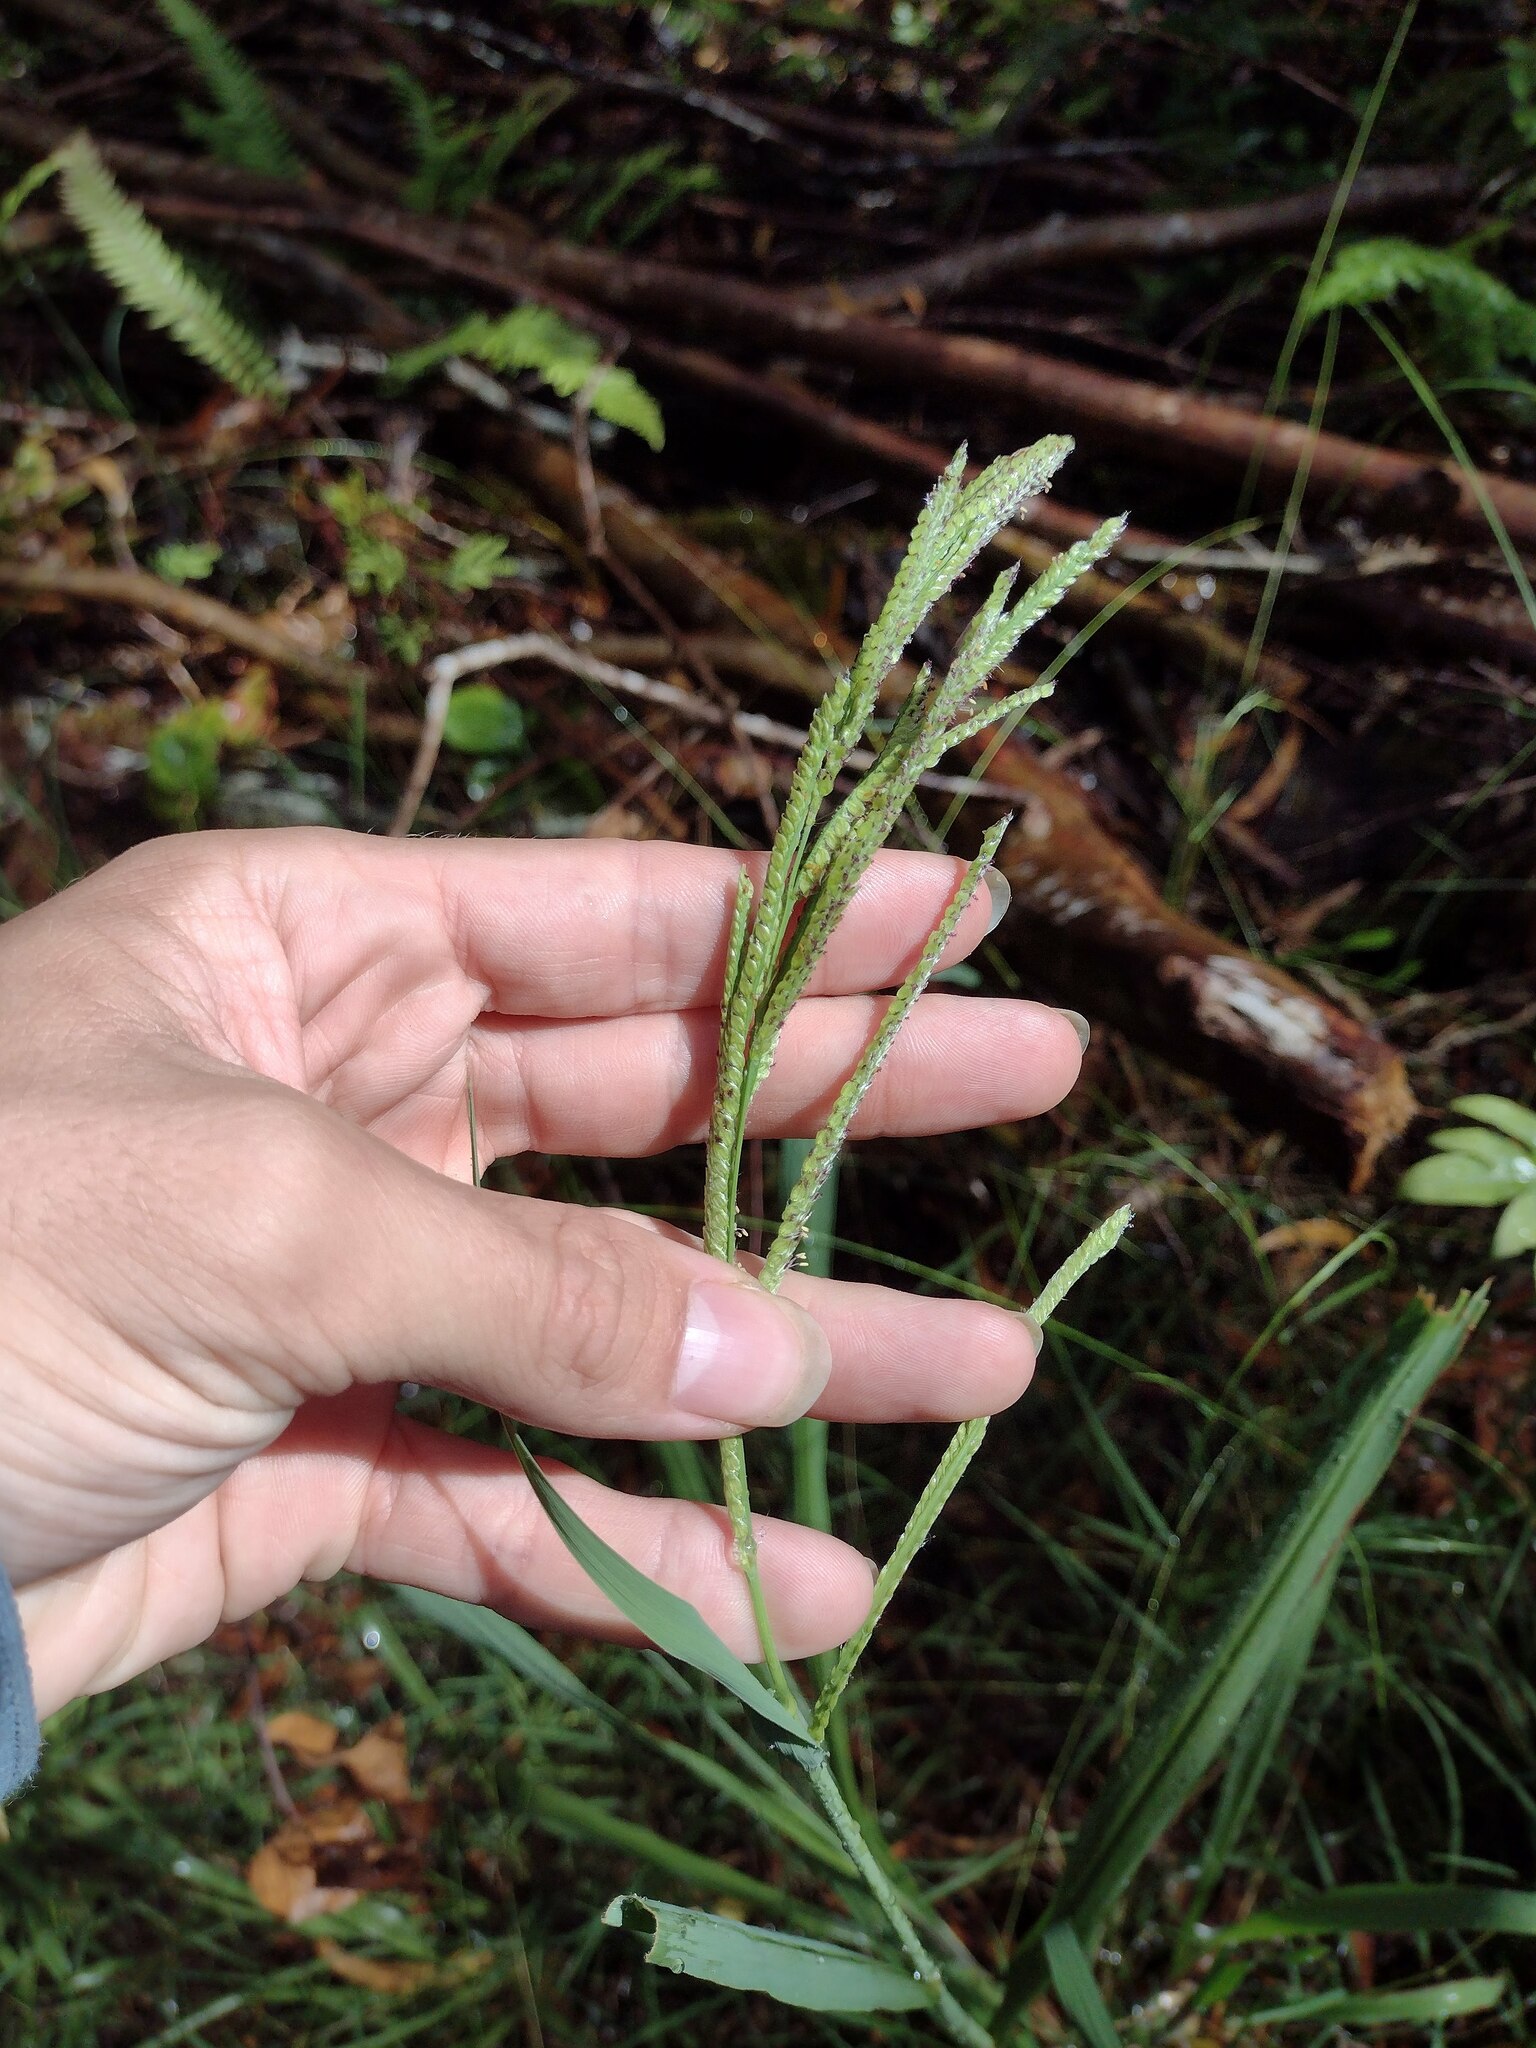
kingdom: Plantae
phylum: Tracheophyta
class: Liliopsida
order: Poales
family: Poaceae
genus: Paspalum
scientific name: Paspalum urvillei
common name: Vasey's grass
